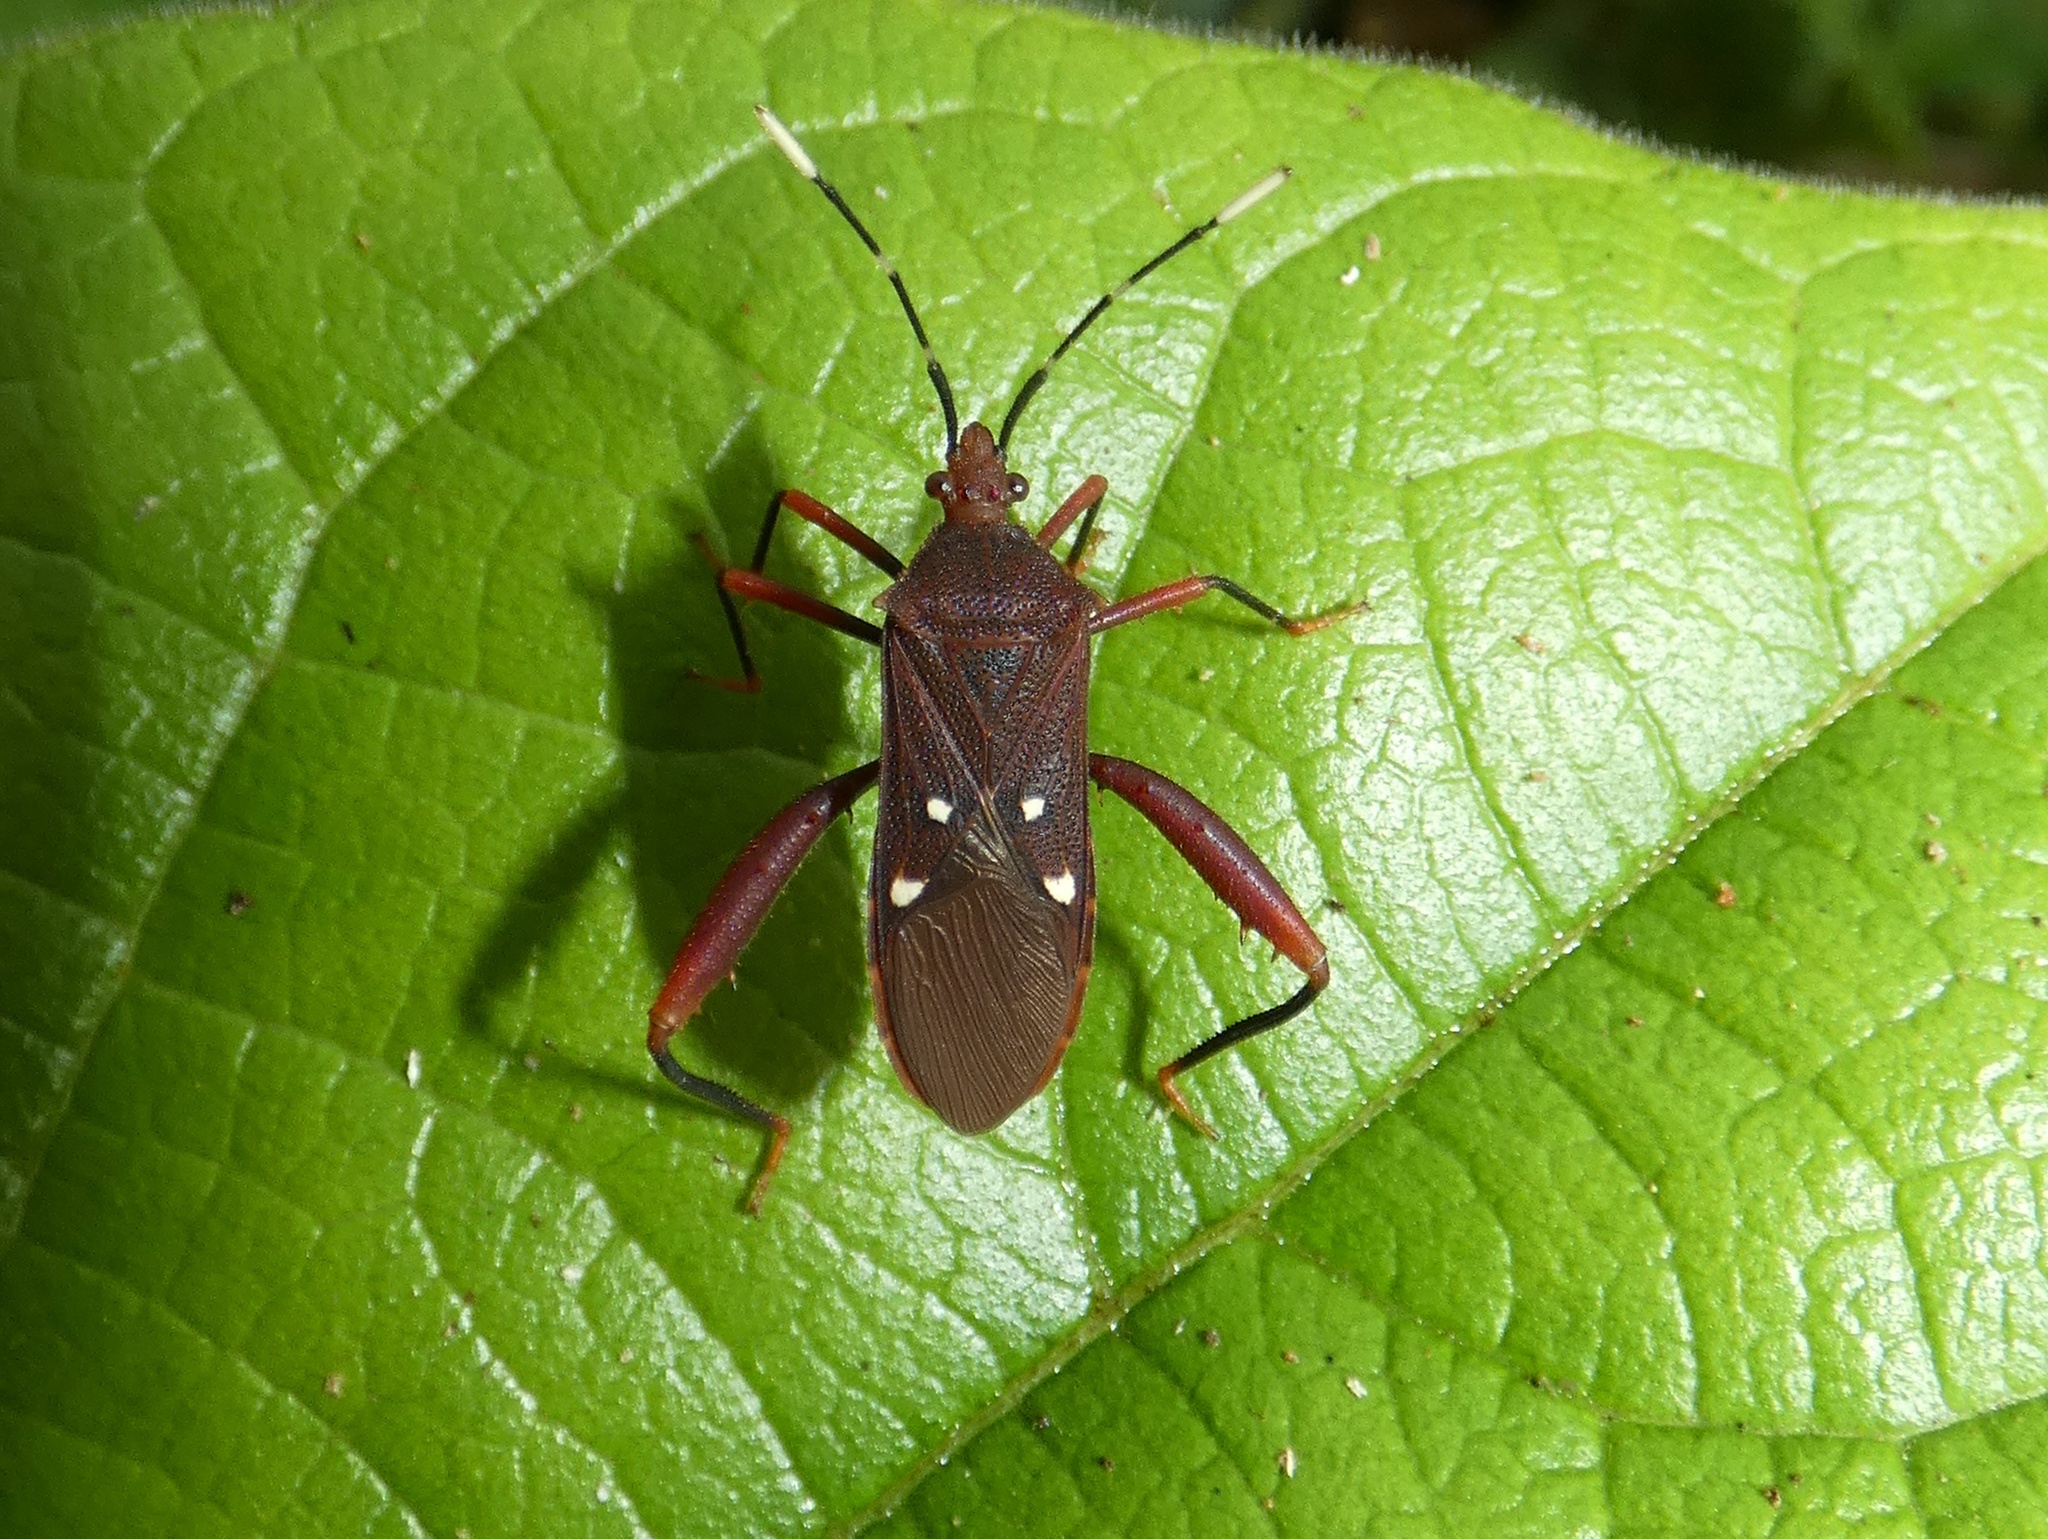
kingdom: Animalia
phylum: Arthropoda
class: Insecta
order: Hemiptera
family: Coreidae
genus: Leptoscelis
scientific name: Leptoscelis quadrisignatus
